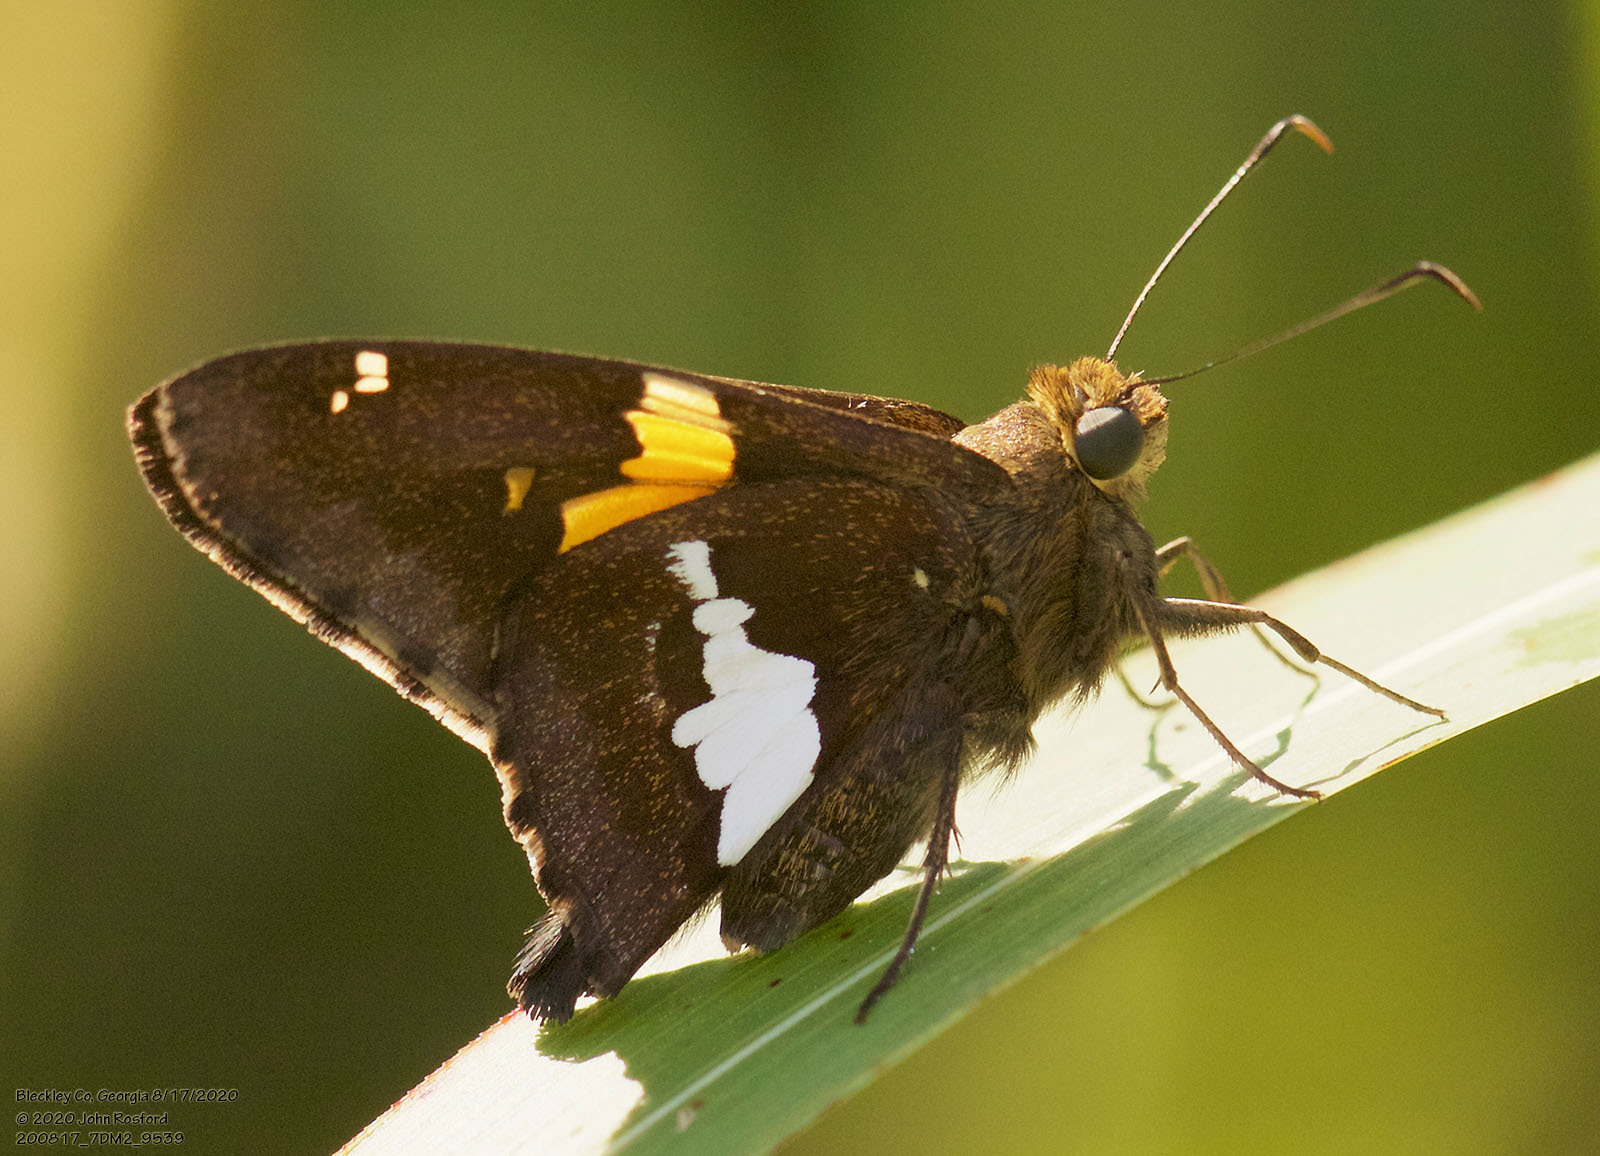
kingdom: Animalia
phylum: Arthropoda
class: Insecta
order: Lepidoptera
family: Hesperiidae
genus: Epargyreus
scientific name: Epargyreus clarus
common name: Silver-spotted skipper
